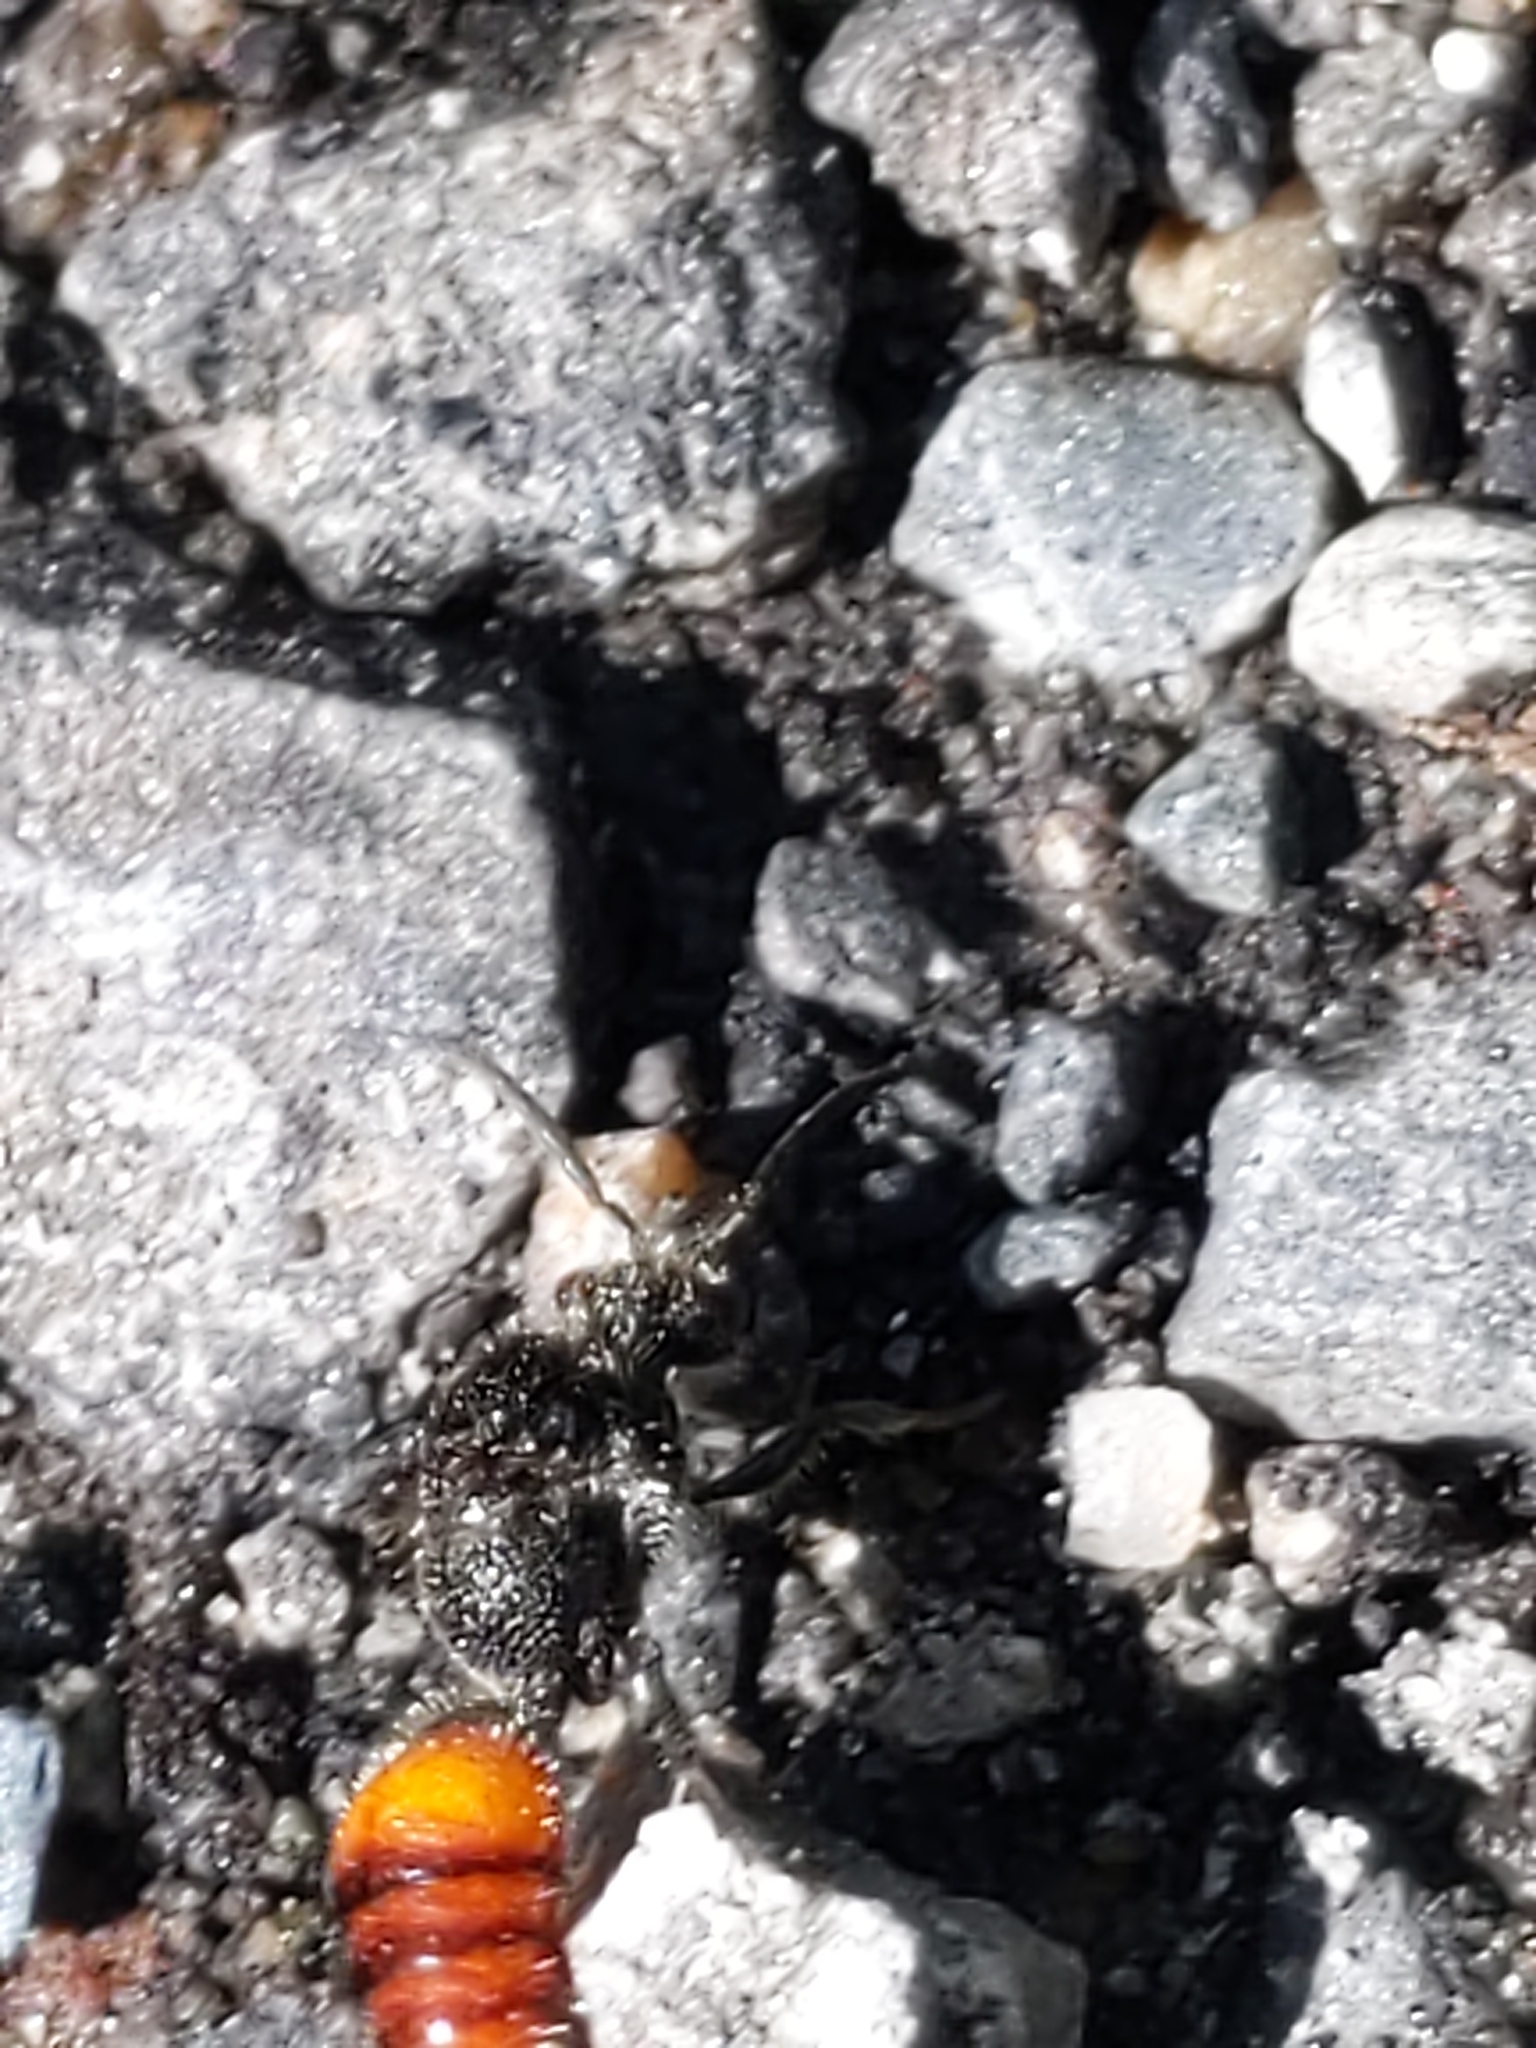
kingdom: Animalia
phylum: Arthropoda
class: Insecta
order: Hymenoptera
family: Mutillidae
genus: Timulla
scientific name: Timulla
